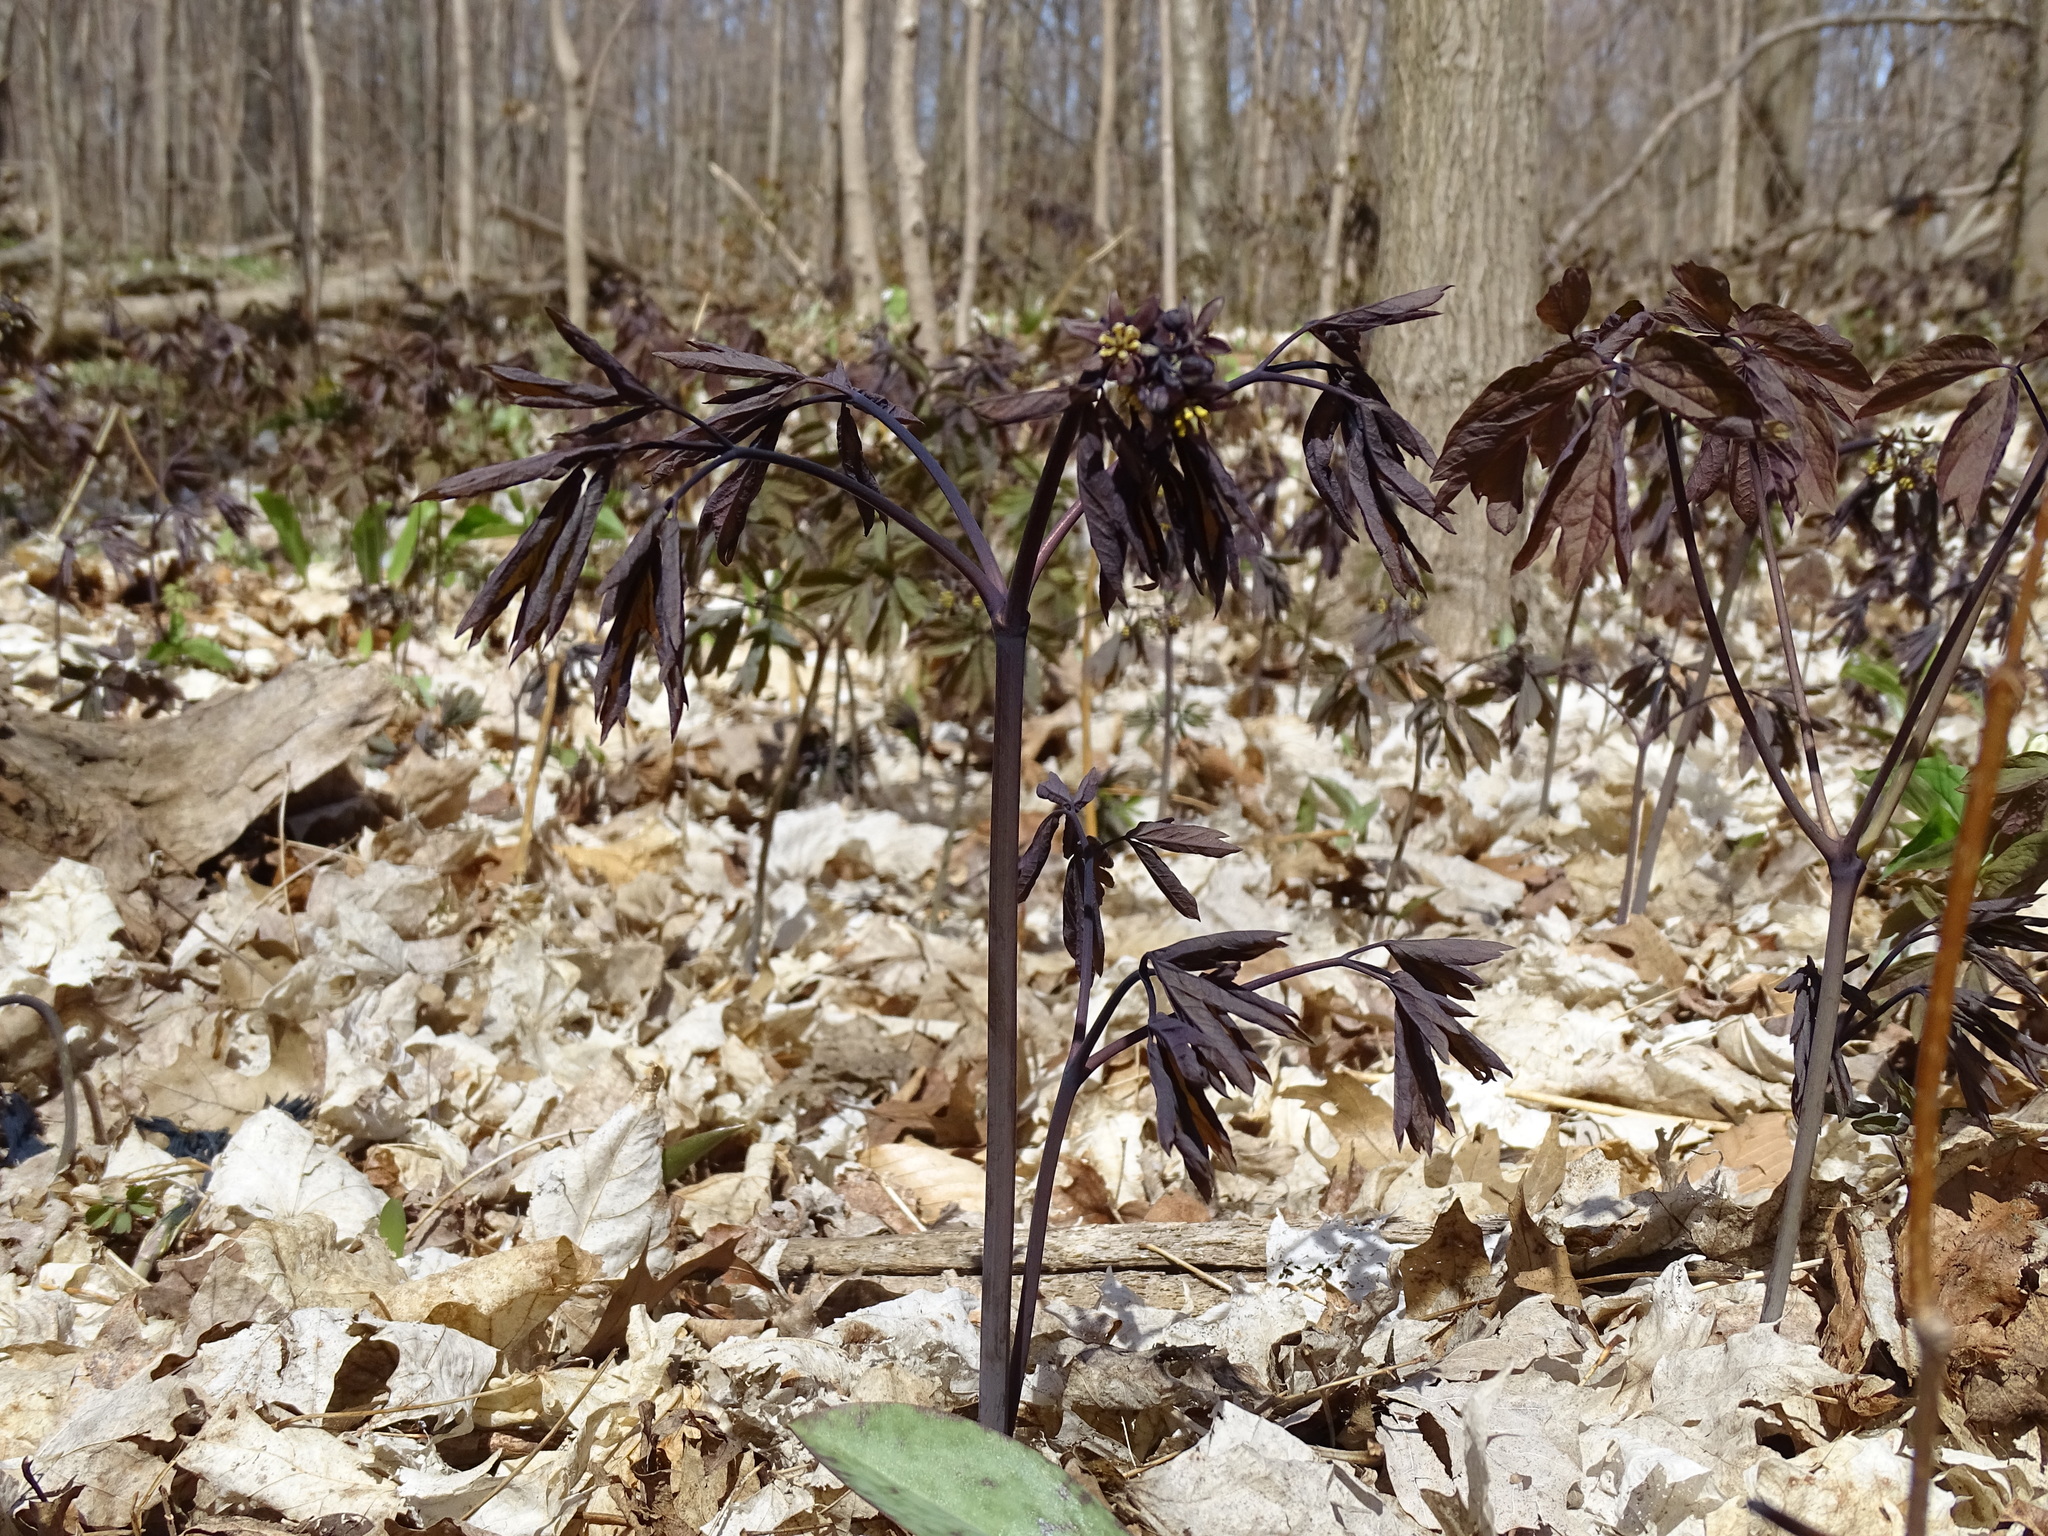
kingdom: Plantae
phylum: Tracheophyta
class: Magnoliopsida
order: Ranunculales
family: Berberidaceae
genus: Caulophyllum
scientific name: Caulophyllum giganteum
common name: Blue cohosh
